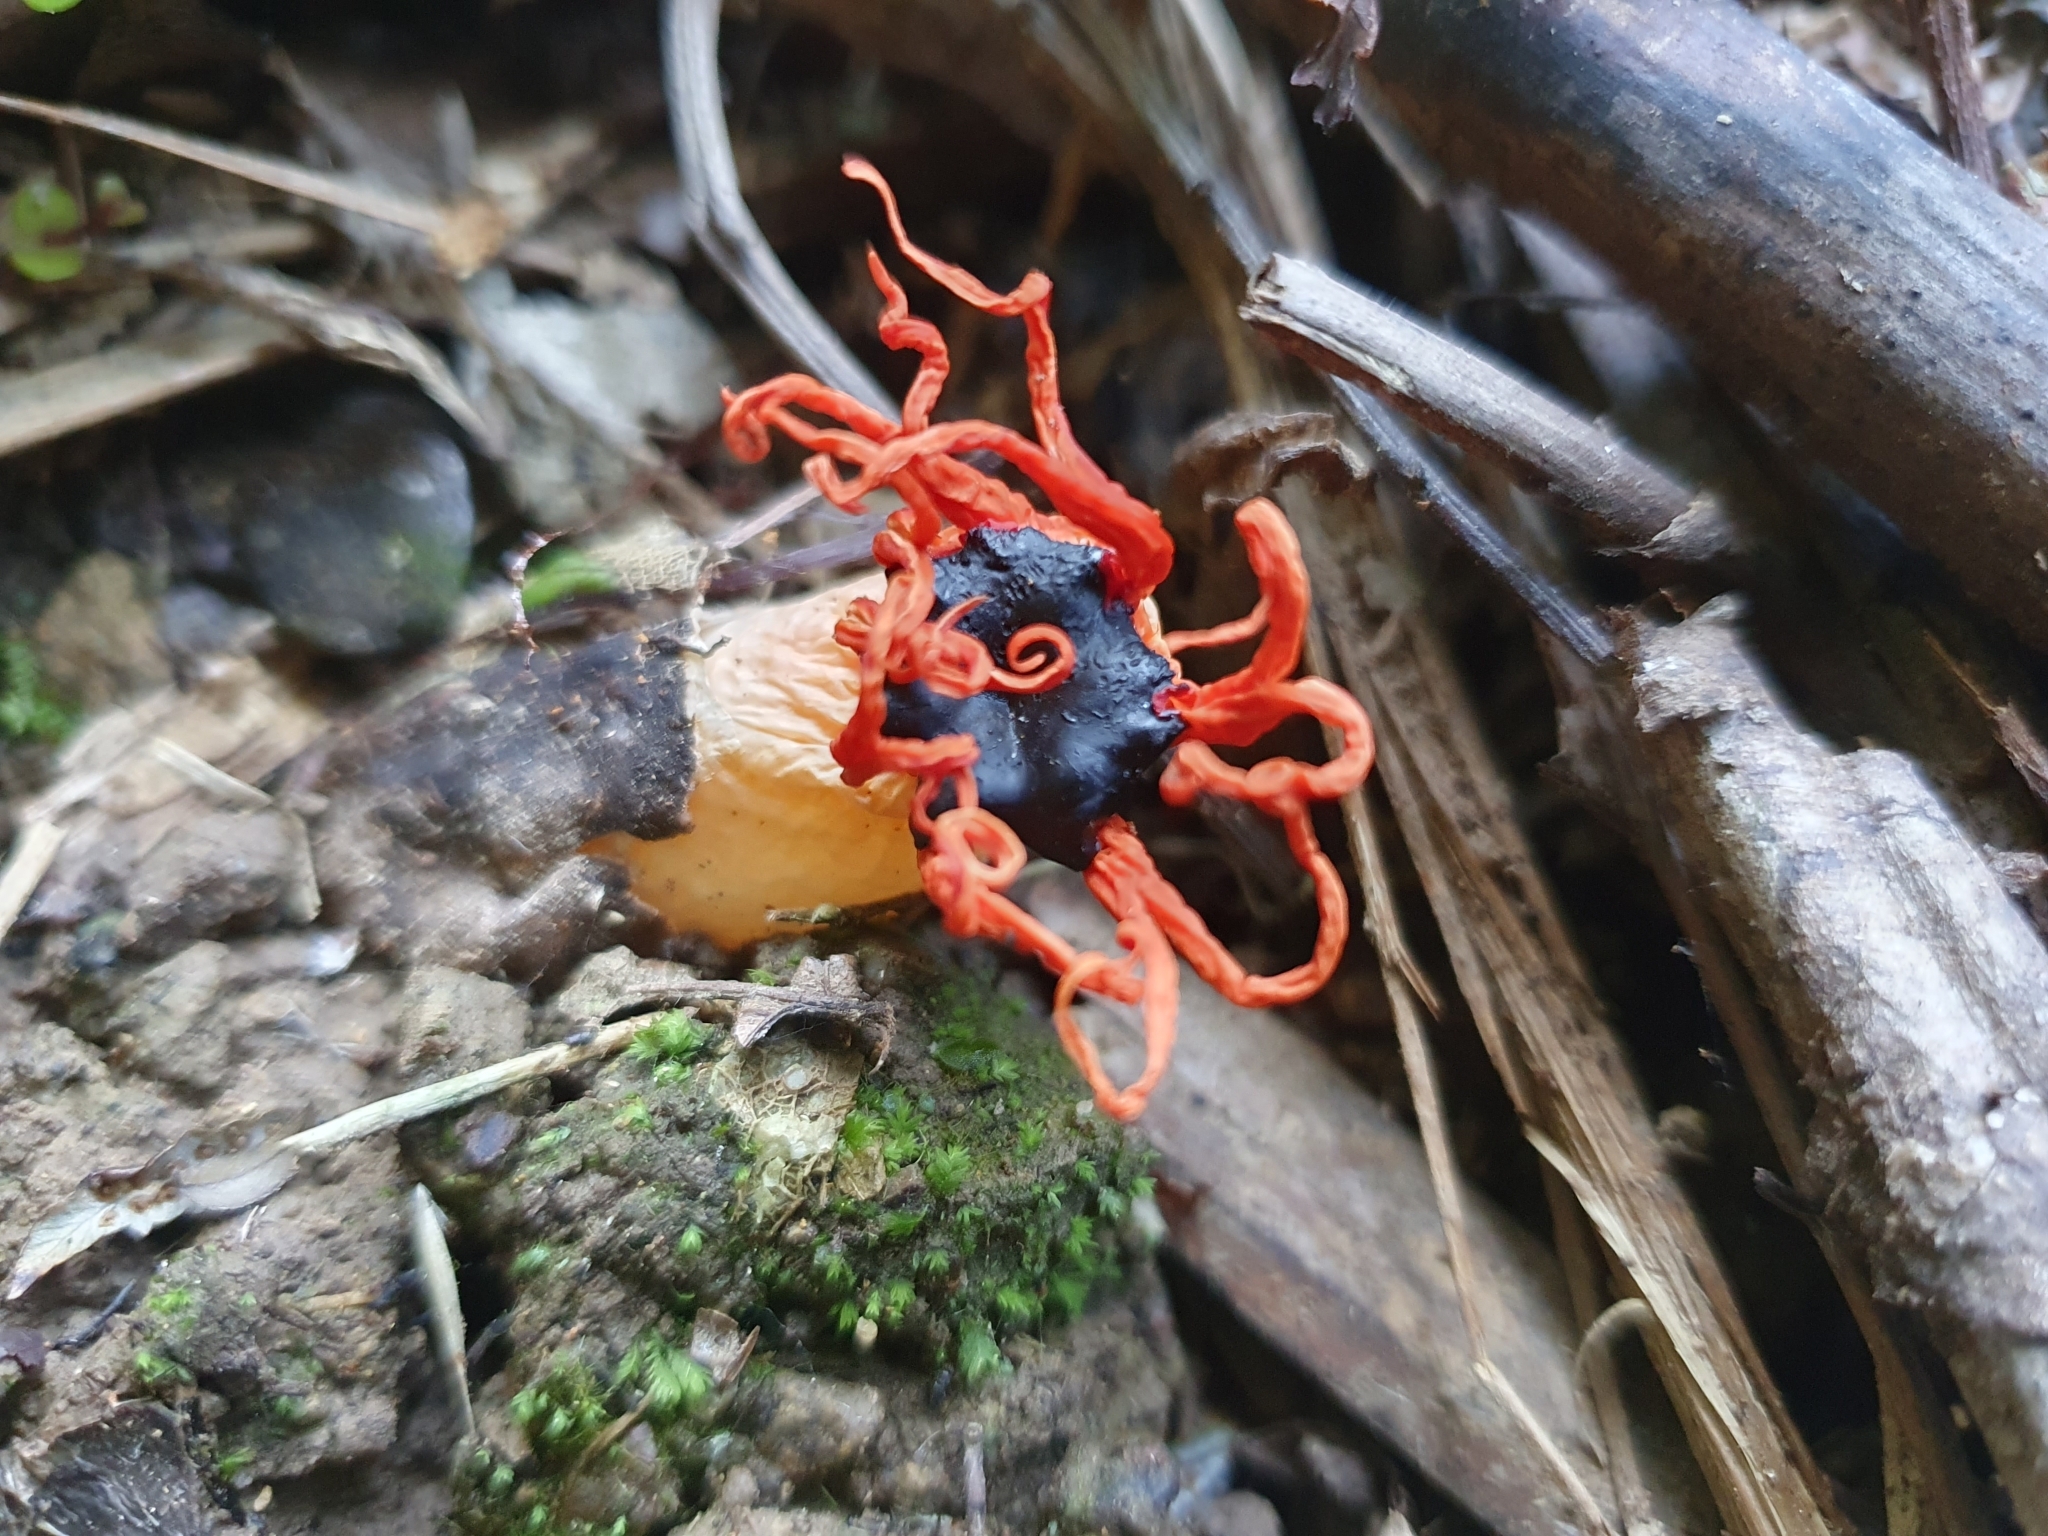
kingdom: Fungi
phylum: Basidiomycota
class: Agaricomycetes
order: Phallales
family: Phallaceae
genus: Aseroe
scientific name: Aseroe rubra
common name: Starfish fungus
